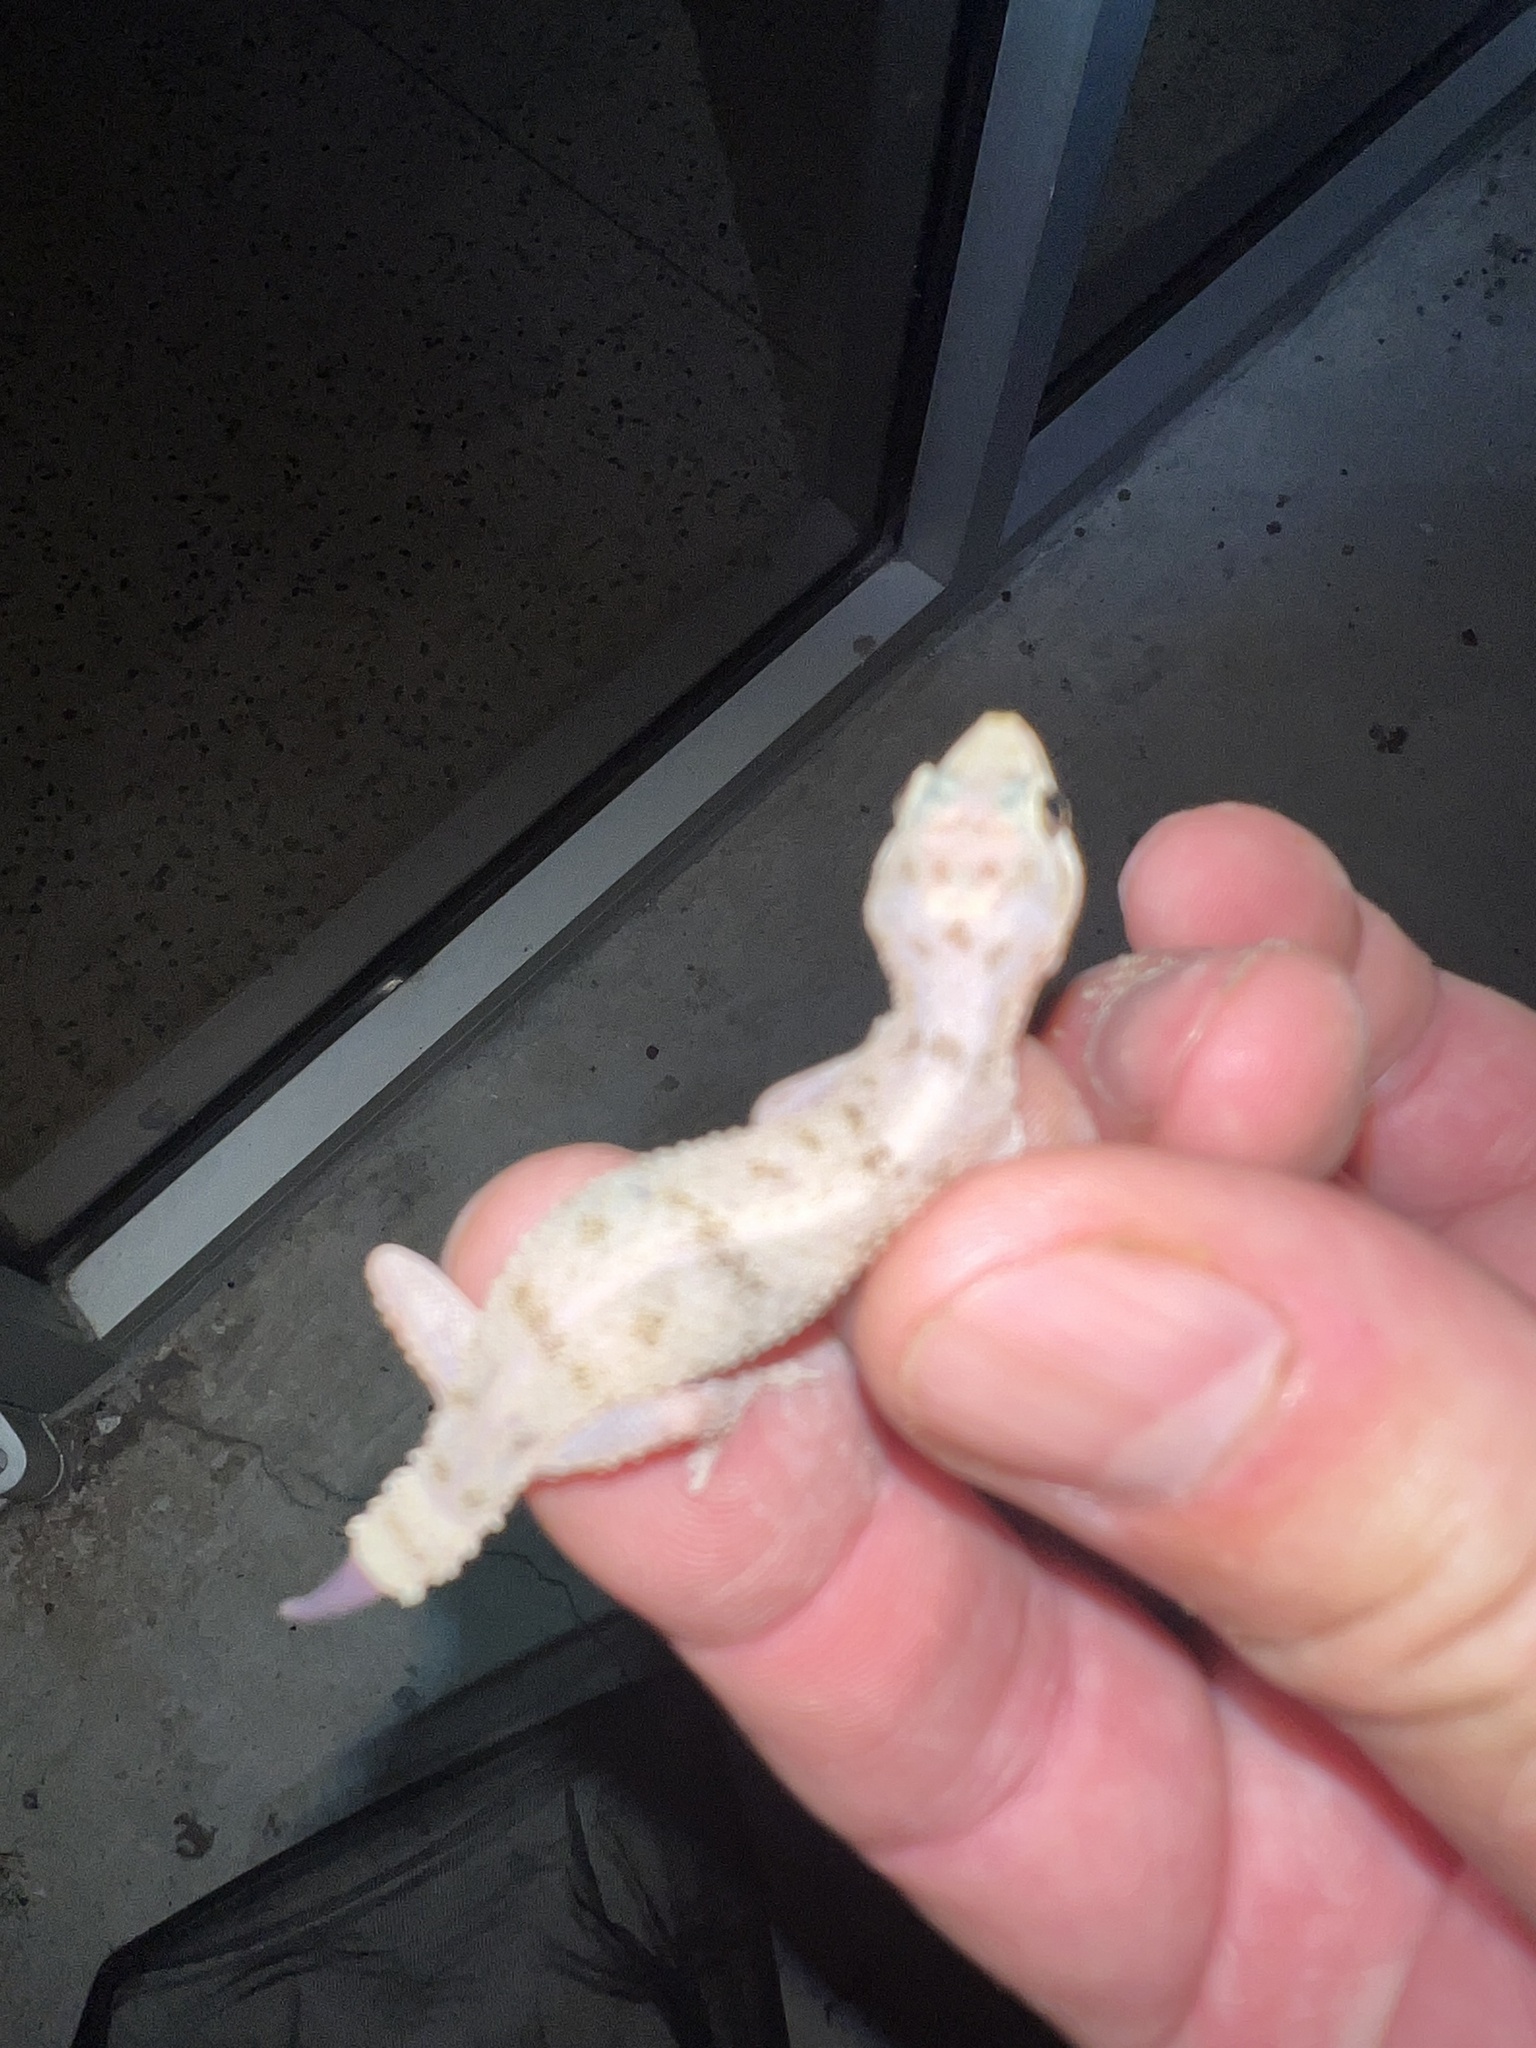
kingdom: Animalia
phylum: Chordata
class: Squamata
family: Gekkonidae
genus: Hemidactylus
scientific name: Hemidactylus parvimaculatus
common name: Spotted house gecko
